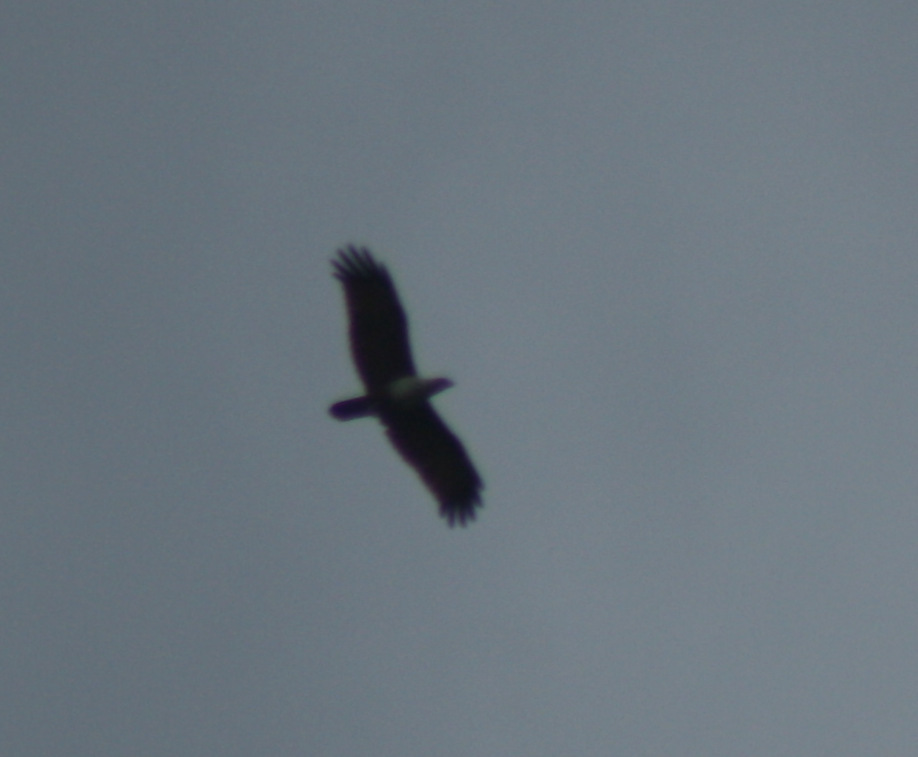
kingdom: Animalia
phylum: Chordata
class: Aves
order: Accipitriformes
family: Accipitridae
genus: Haliastur
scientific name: Haliastur indus
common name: Brahminy kite
